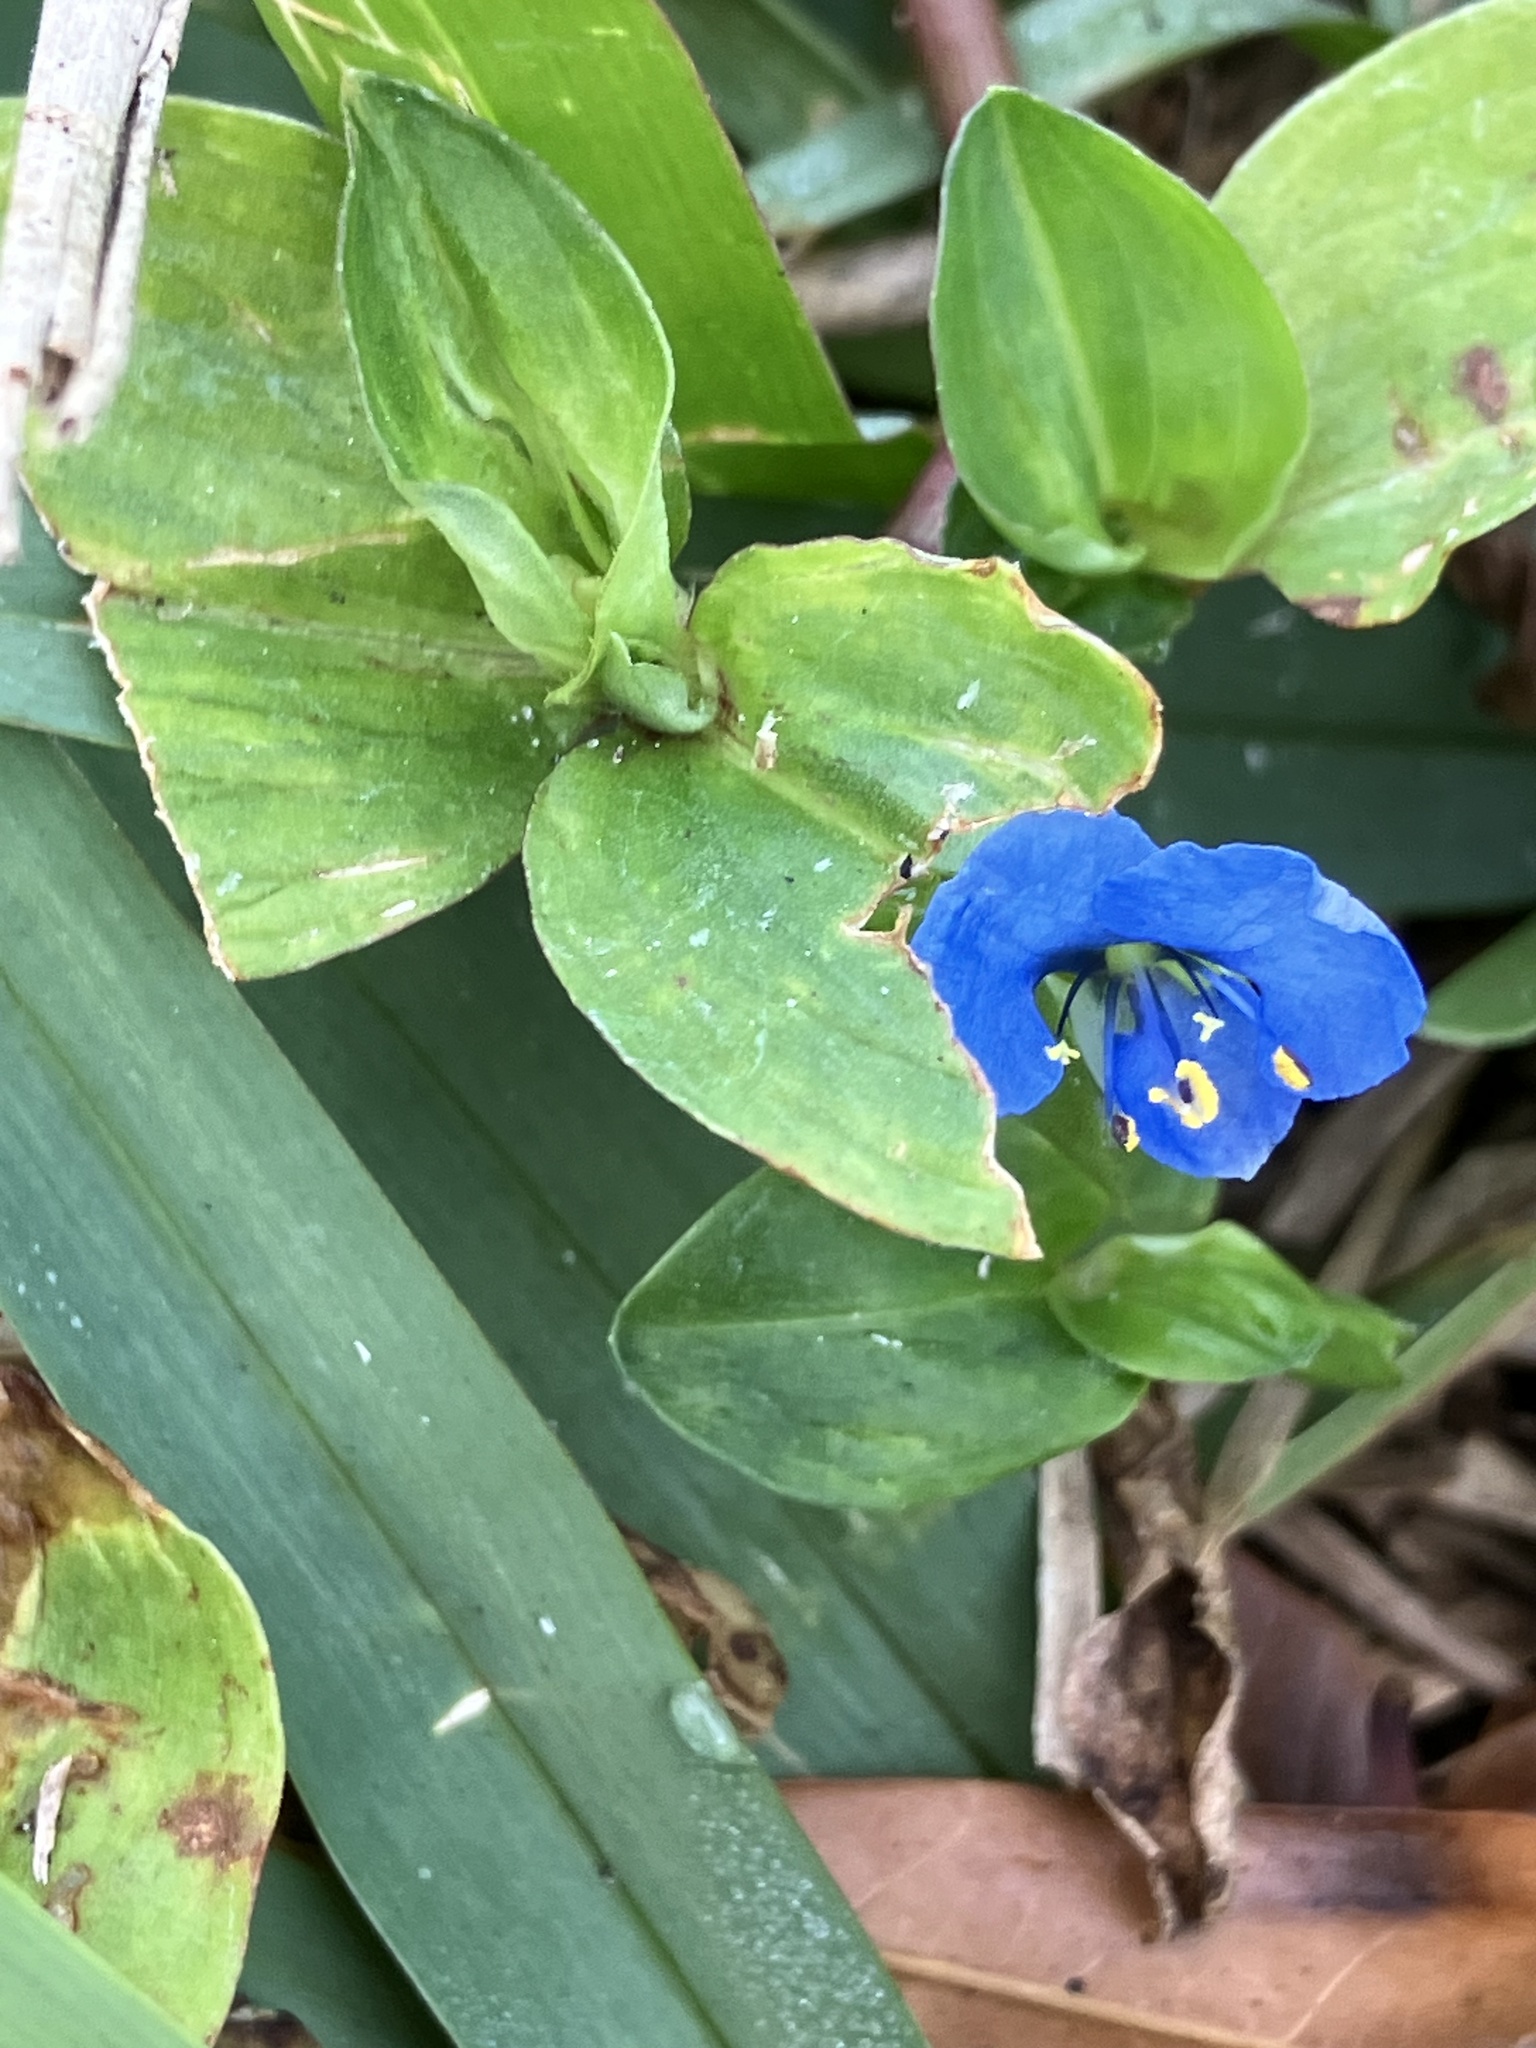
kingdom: Plantae
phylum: Tracheophyta
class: Liliopsida
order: Commelinales
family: Commelinaceae
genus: Commelina
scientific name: Commelina diffusa
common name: Climbing dayflower
